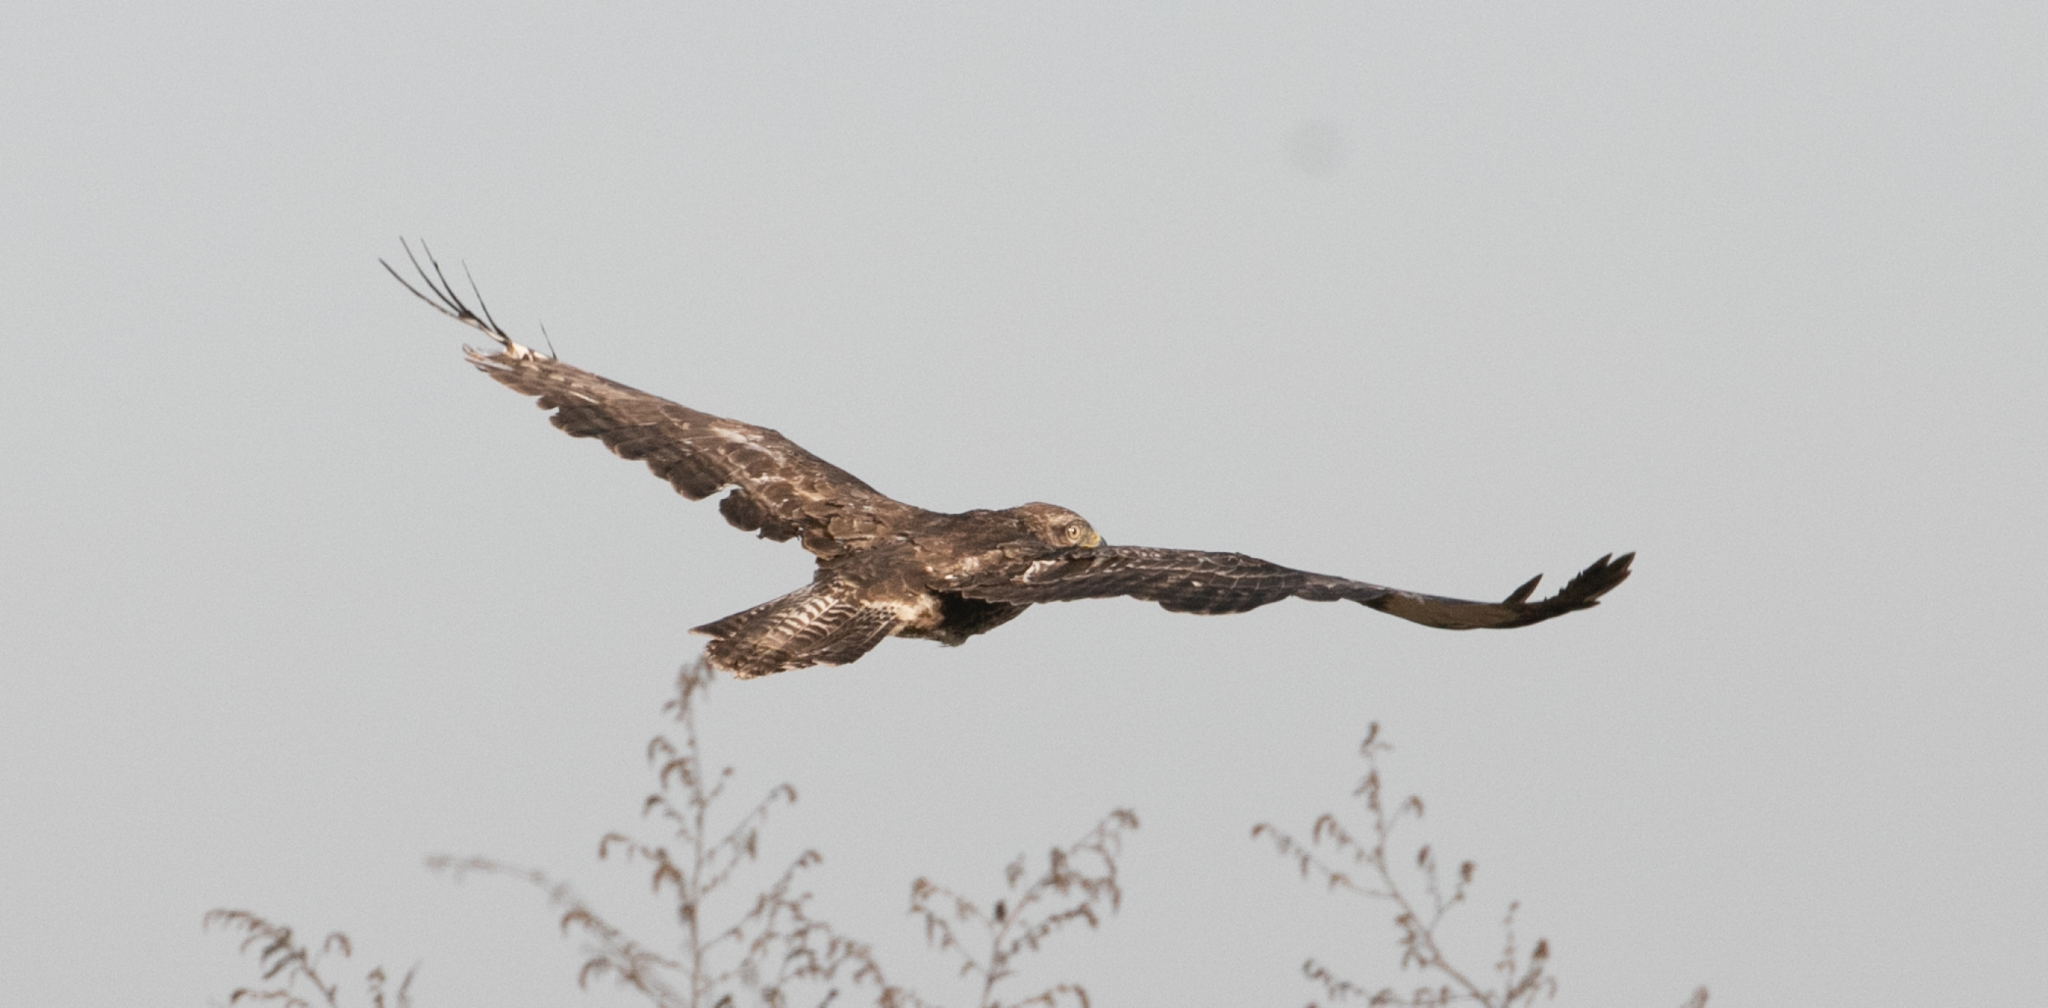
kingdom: Animalia
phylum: Chordata
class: Aves
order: Accipitriformes
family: Accipitridae
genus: Buteo
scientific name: Buteo buteo
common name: Common buzzard
